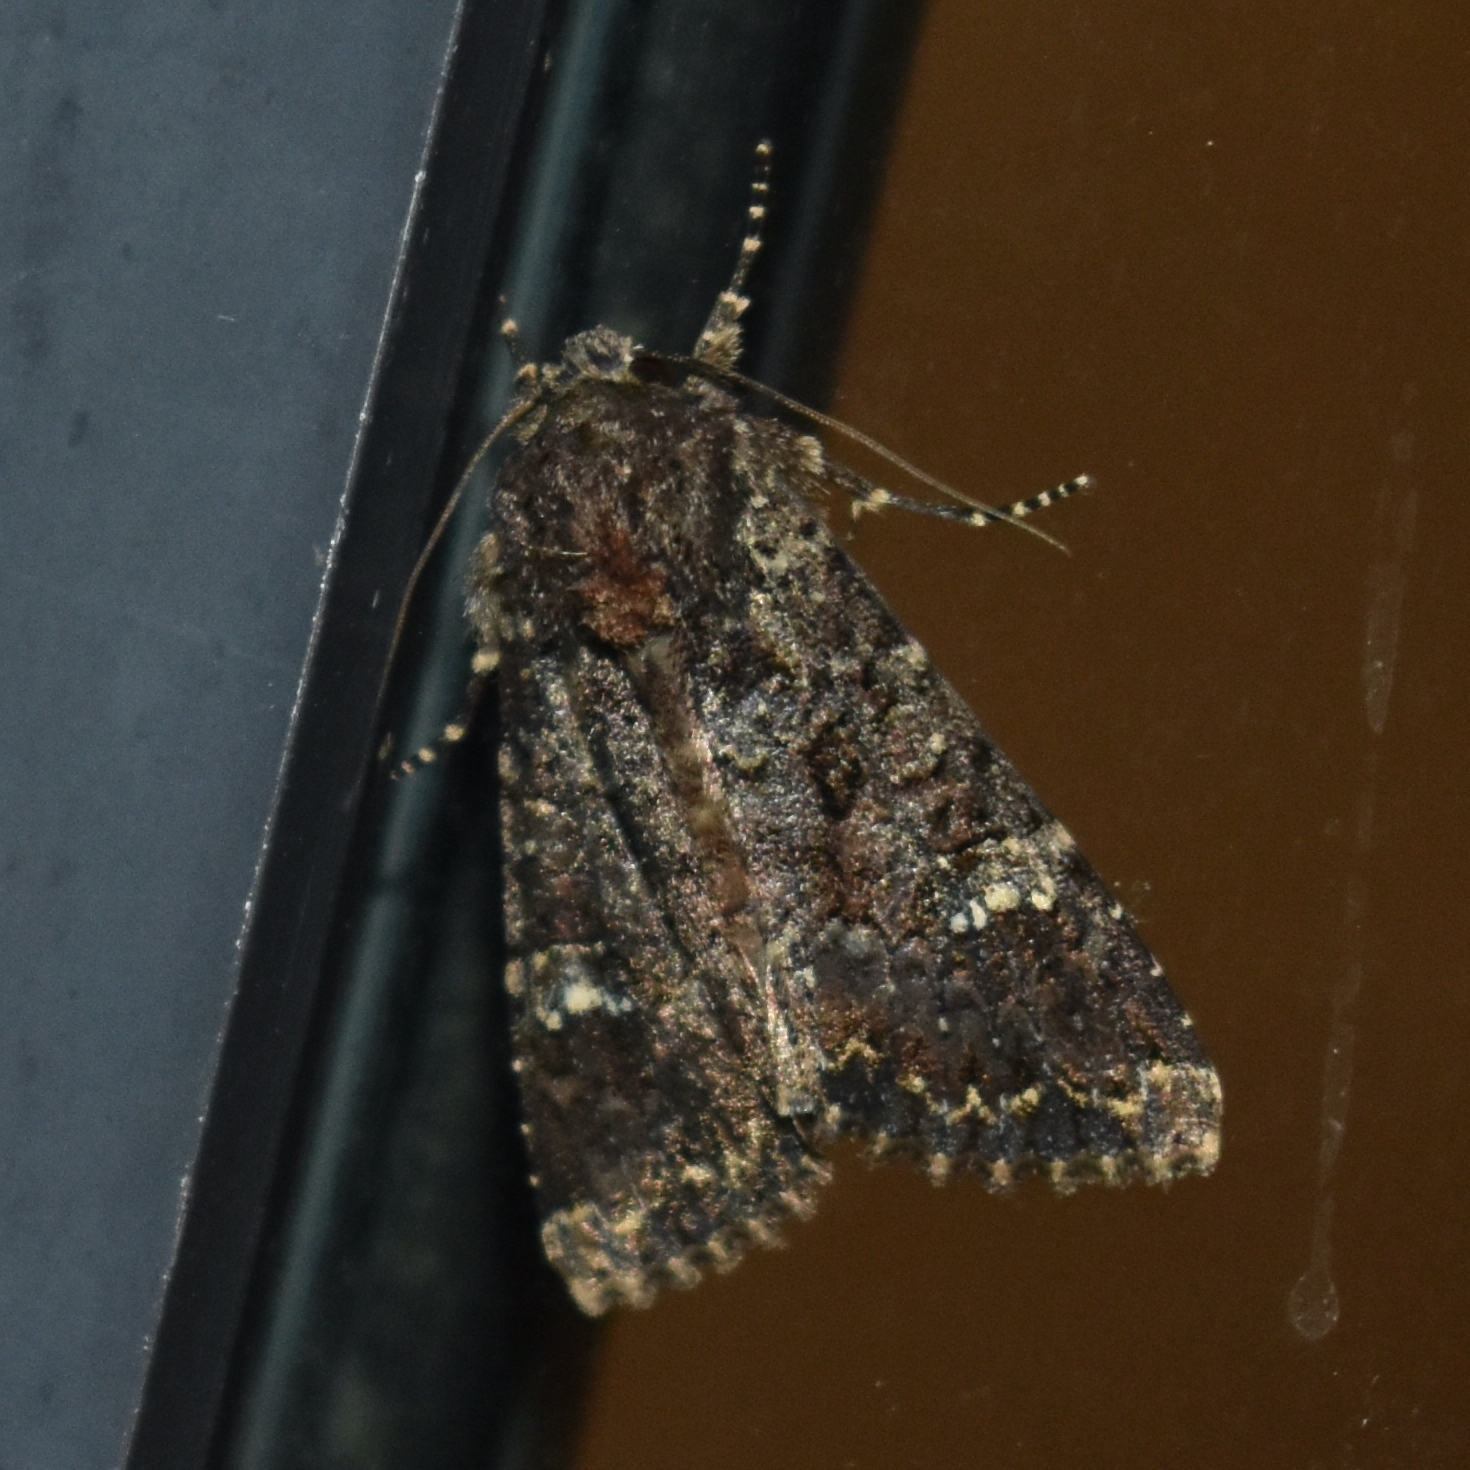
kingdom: Animalia
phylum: Arthropoda
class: Insecta
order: Lepidoptera
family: Noctuidae
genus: Apamea
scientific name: Apamea amputatrix
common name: Yellow-headed cutworm moth
